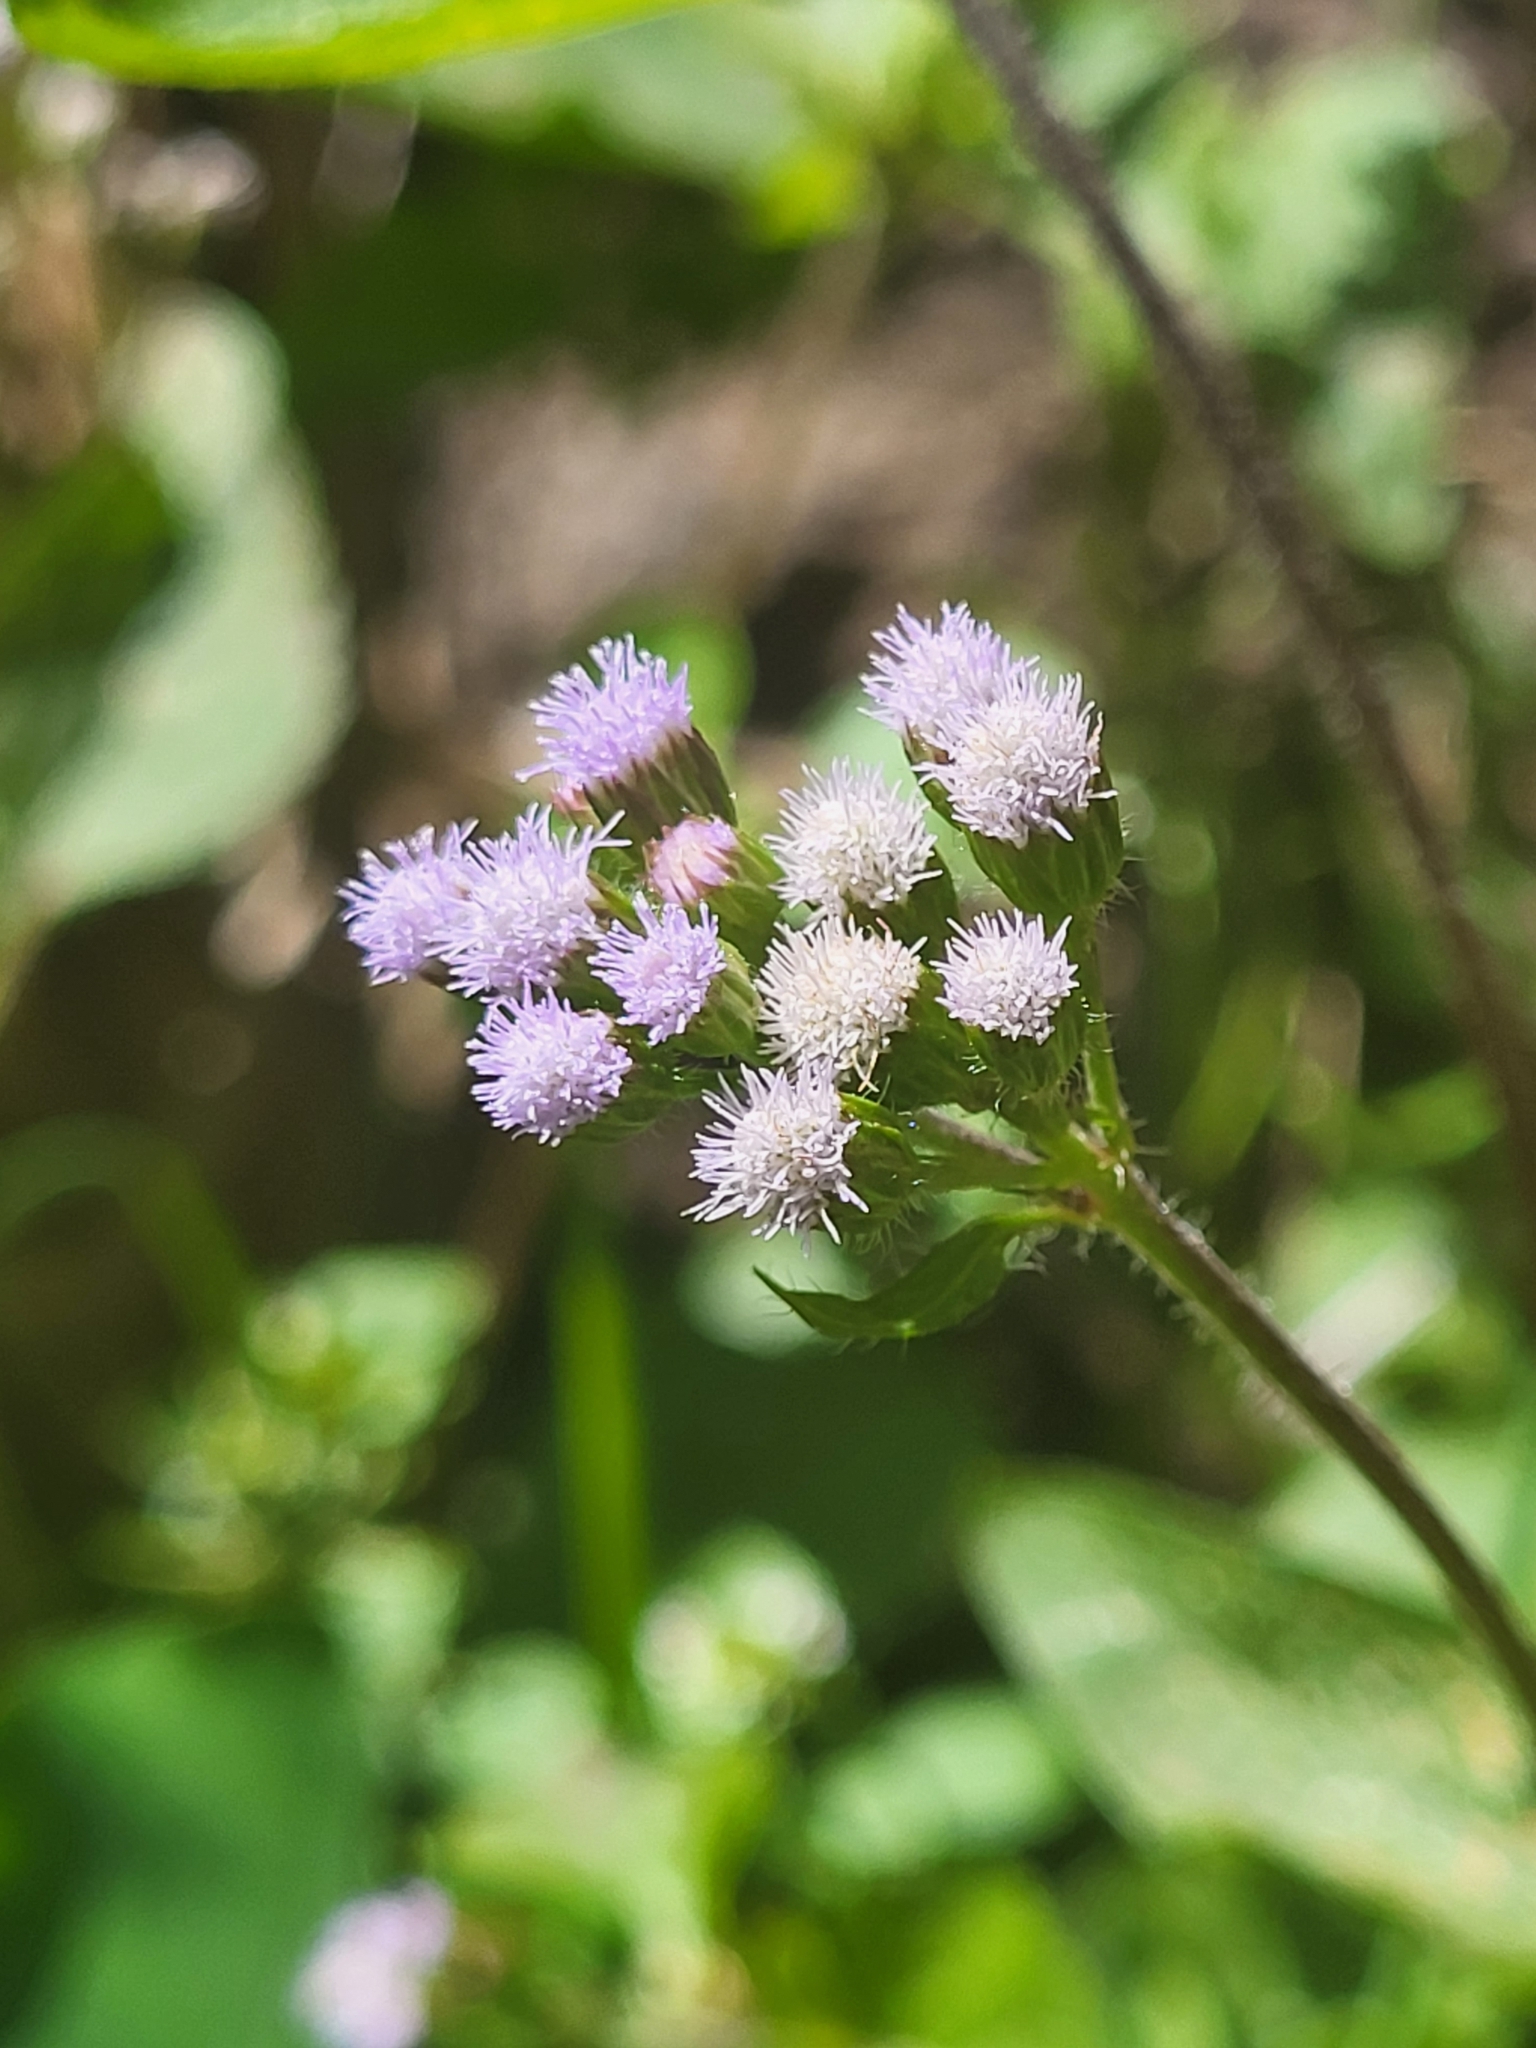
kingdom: Plantae
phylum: Tracheophyta
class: Magnoliopsida
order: Asterales
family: Asteraceae
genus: Ageratum
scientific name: Ageratum conyzoides
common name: Tropical whiteweed
